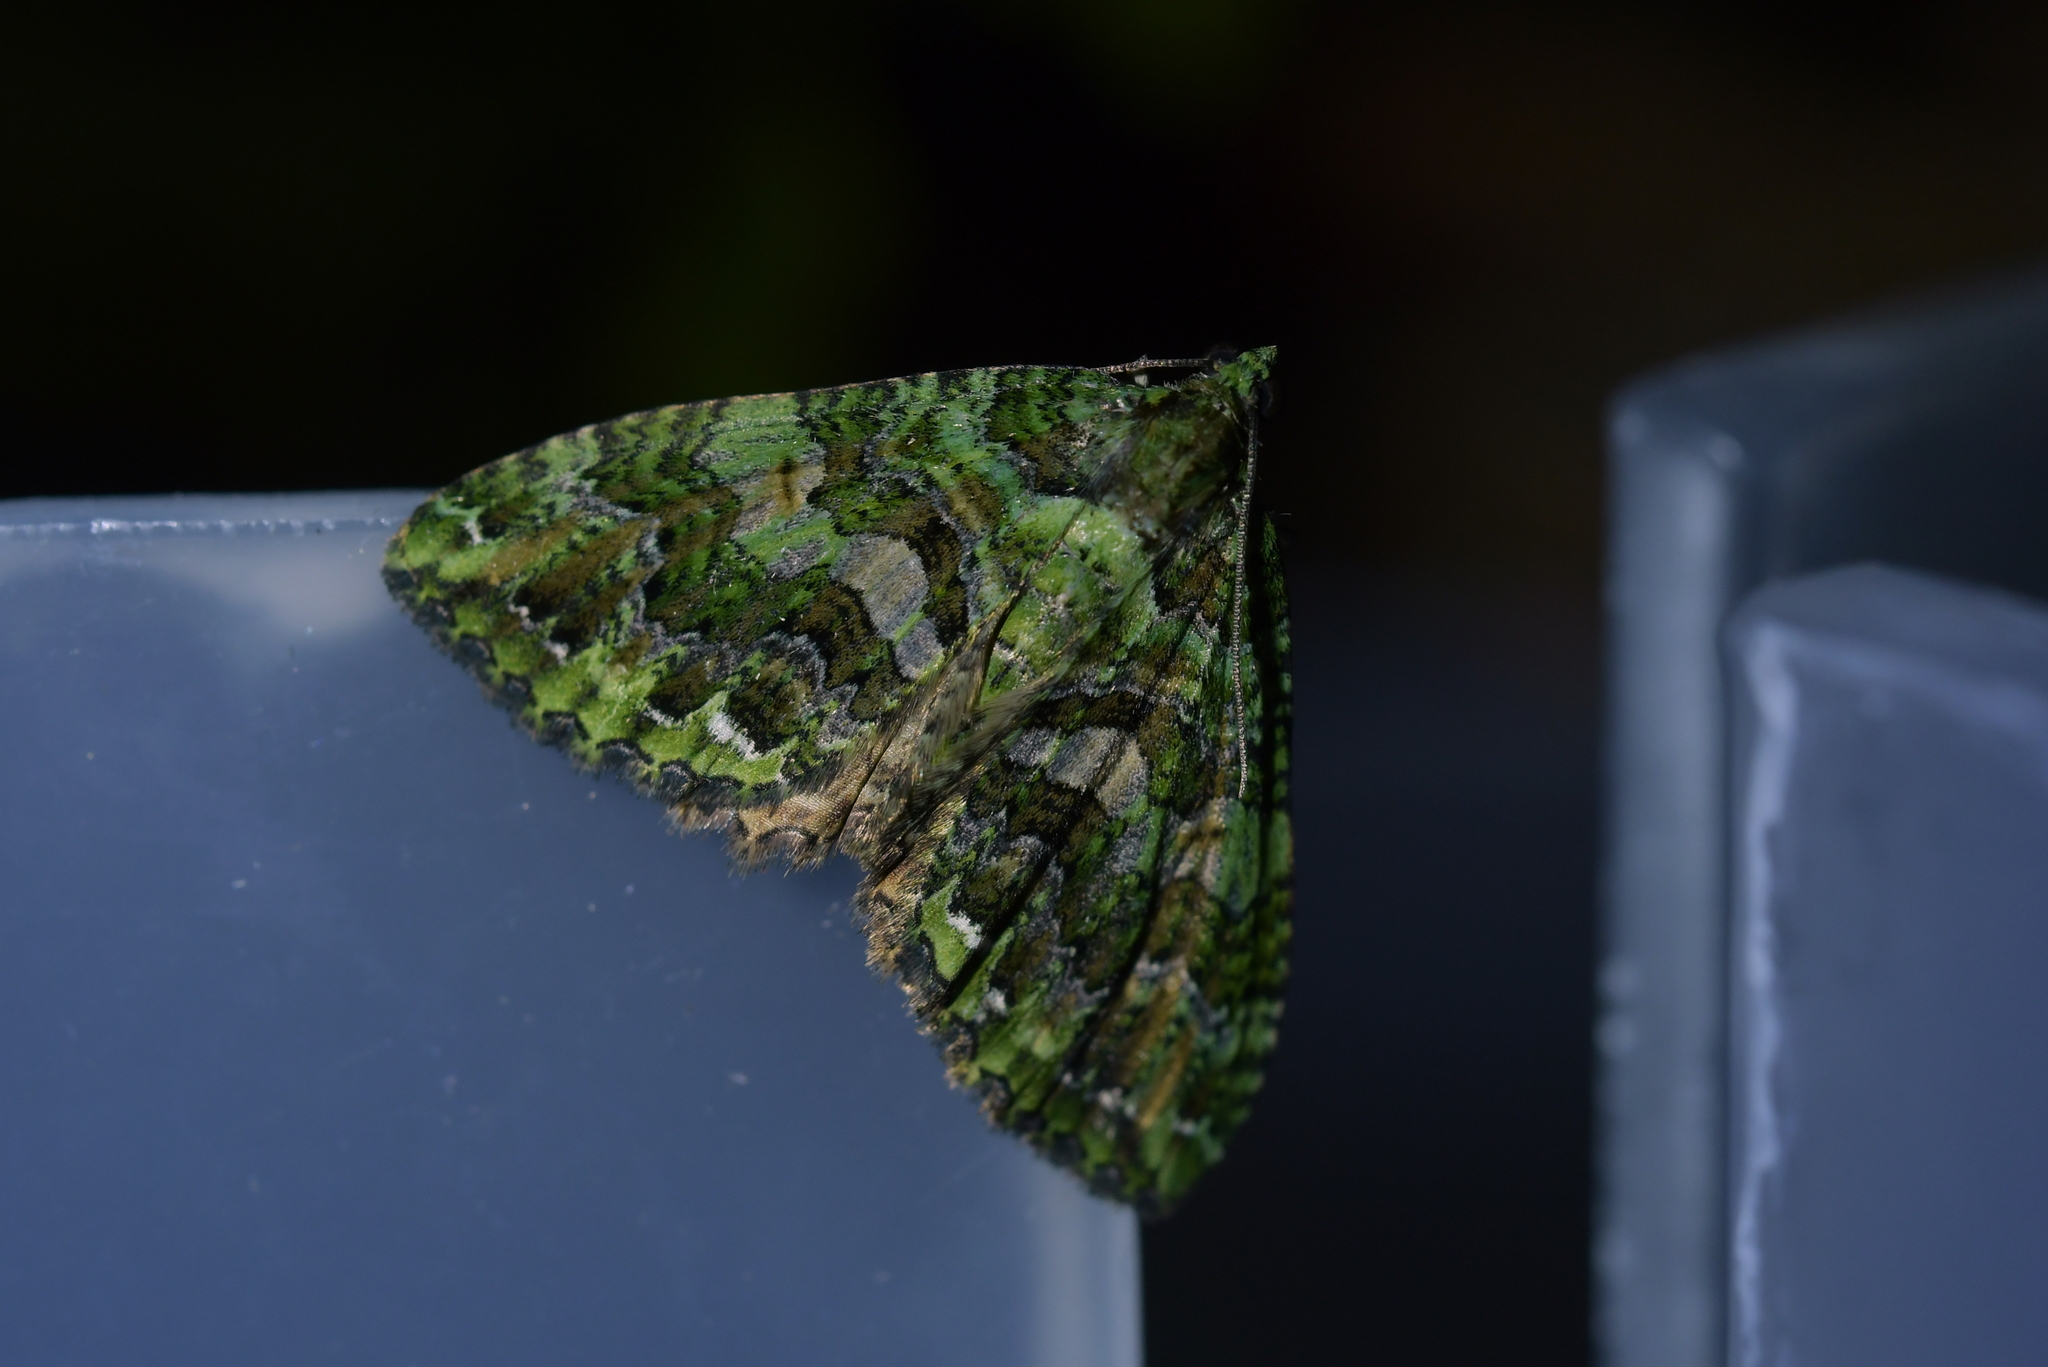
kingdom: Animalia
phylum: Arthropoda
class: Insecta
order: Lepidoptera
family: Geometridae
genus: Austrocidaria
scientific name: Austrocidaria similata
